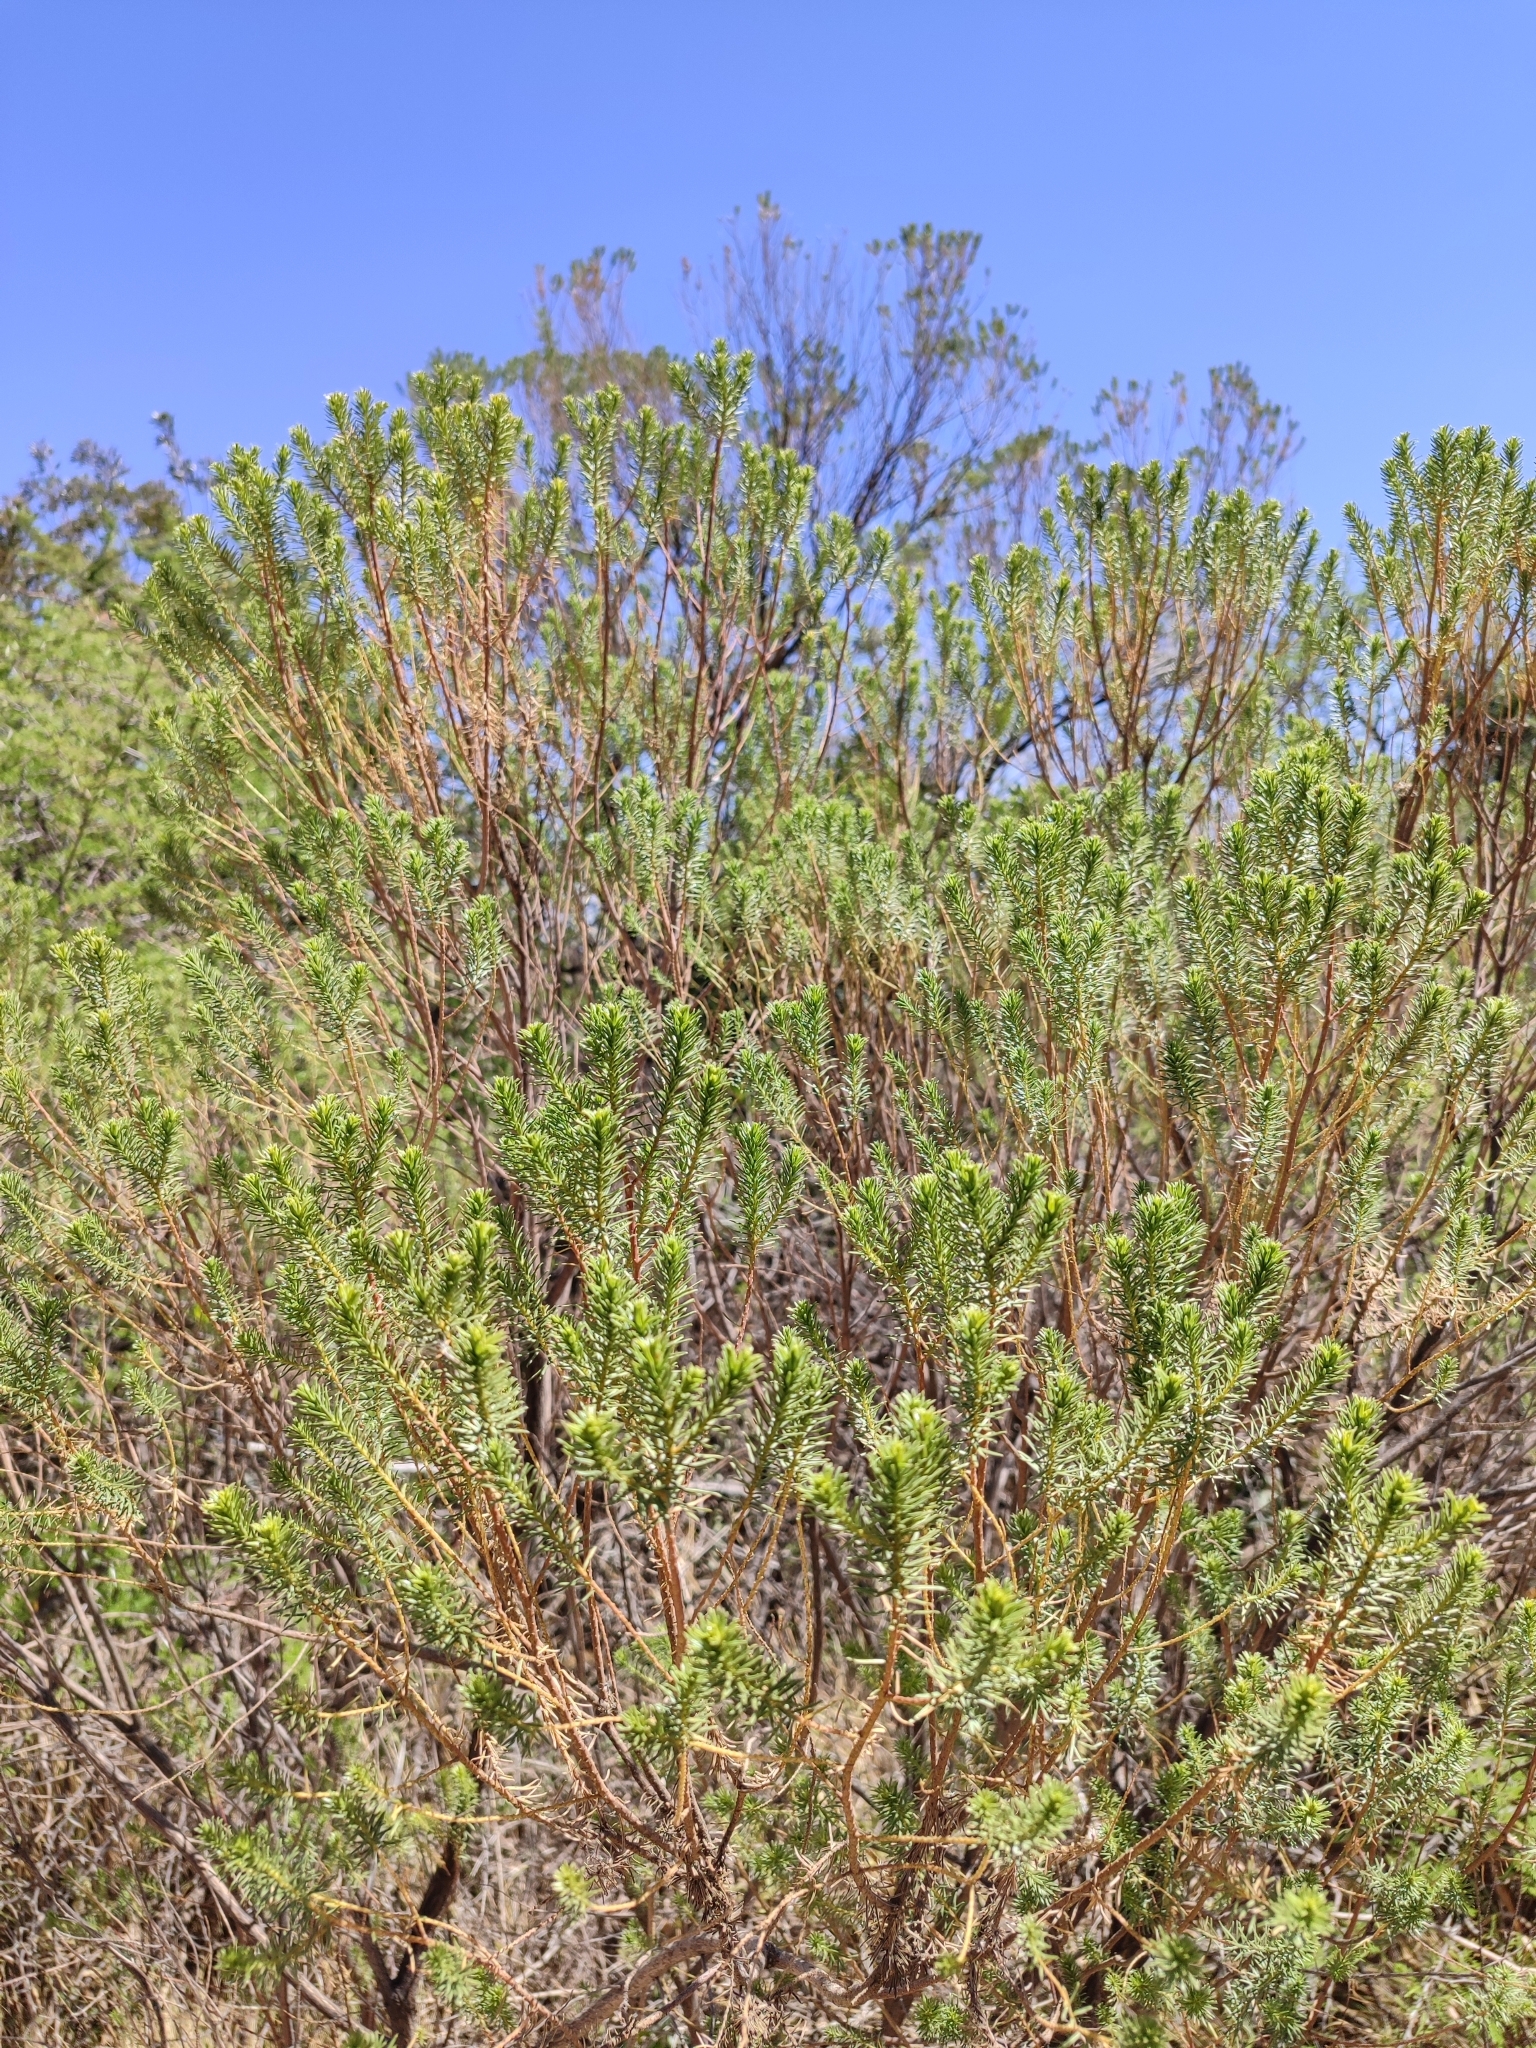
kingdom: Plantae
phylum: Tracheophyta
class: Magnoliopsida
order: Asterales
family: Asteraceae
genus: Baccharis
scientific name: Baccharis aliena
